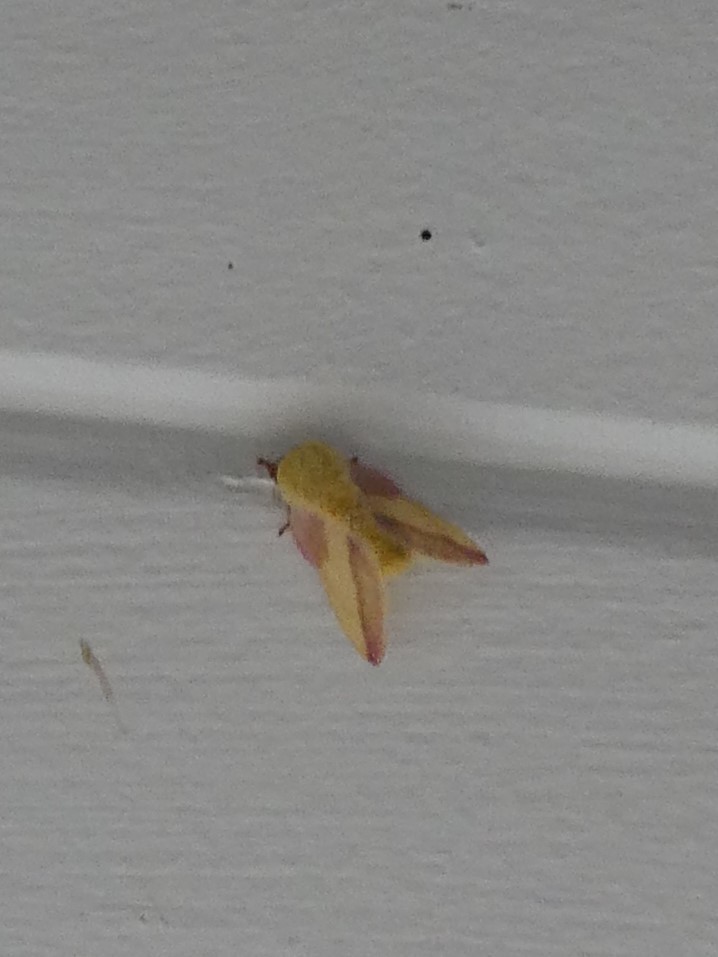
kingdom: Animalia
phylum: Arthropoda
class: Insecta
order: Lepidoptera
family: Saturniidae
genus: Dryocampa
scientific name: Dryocampa rubicunda
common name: Rosy maple moth
